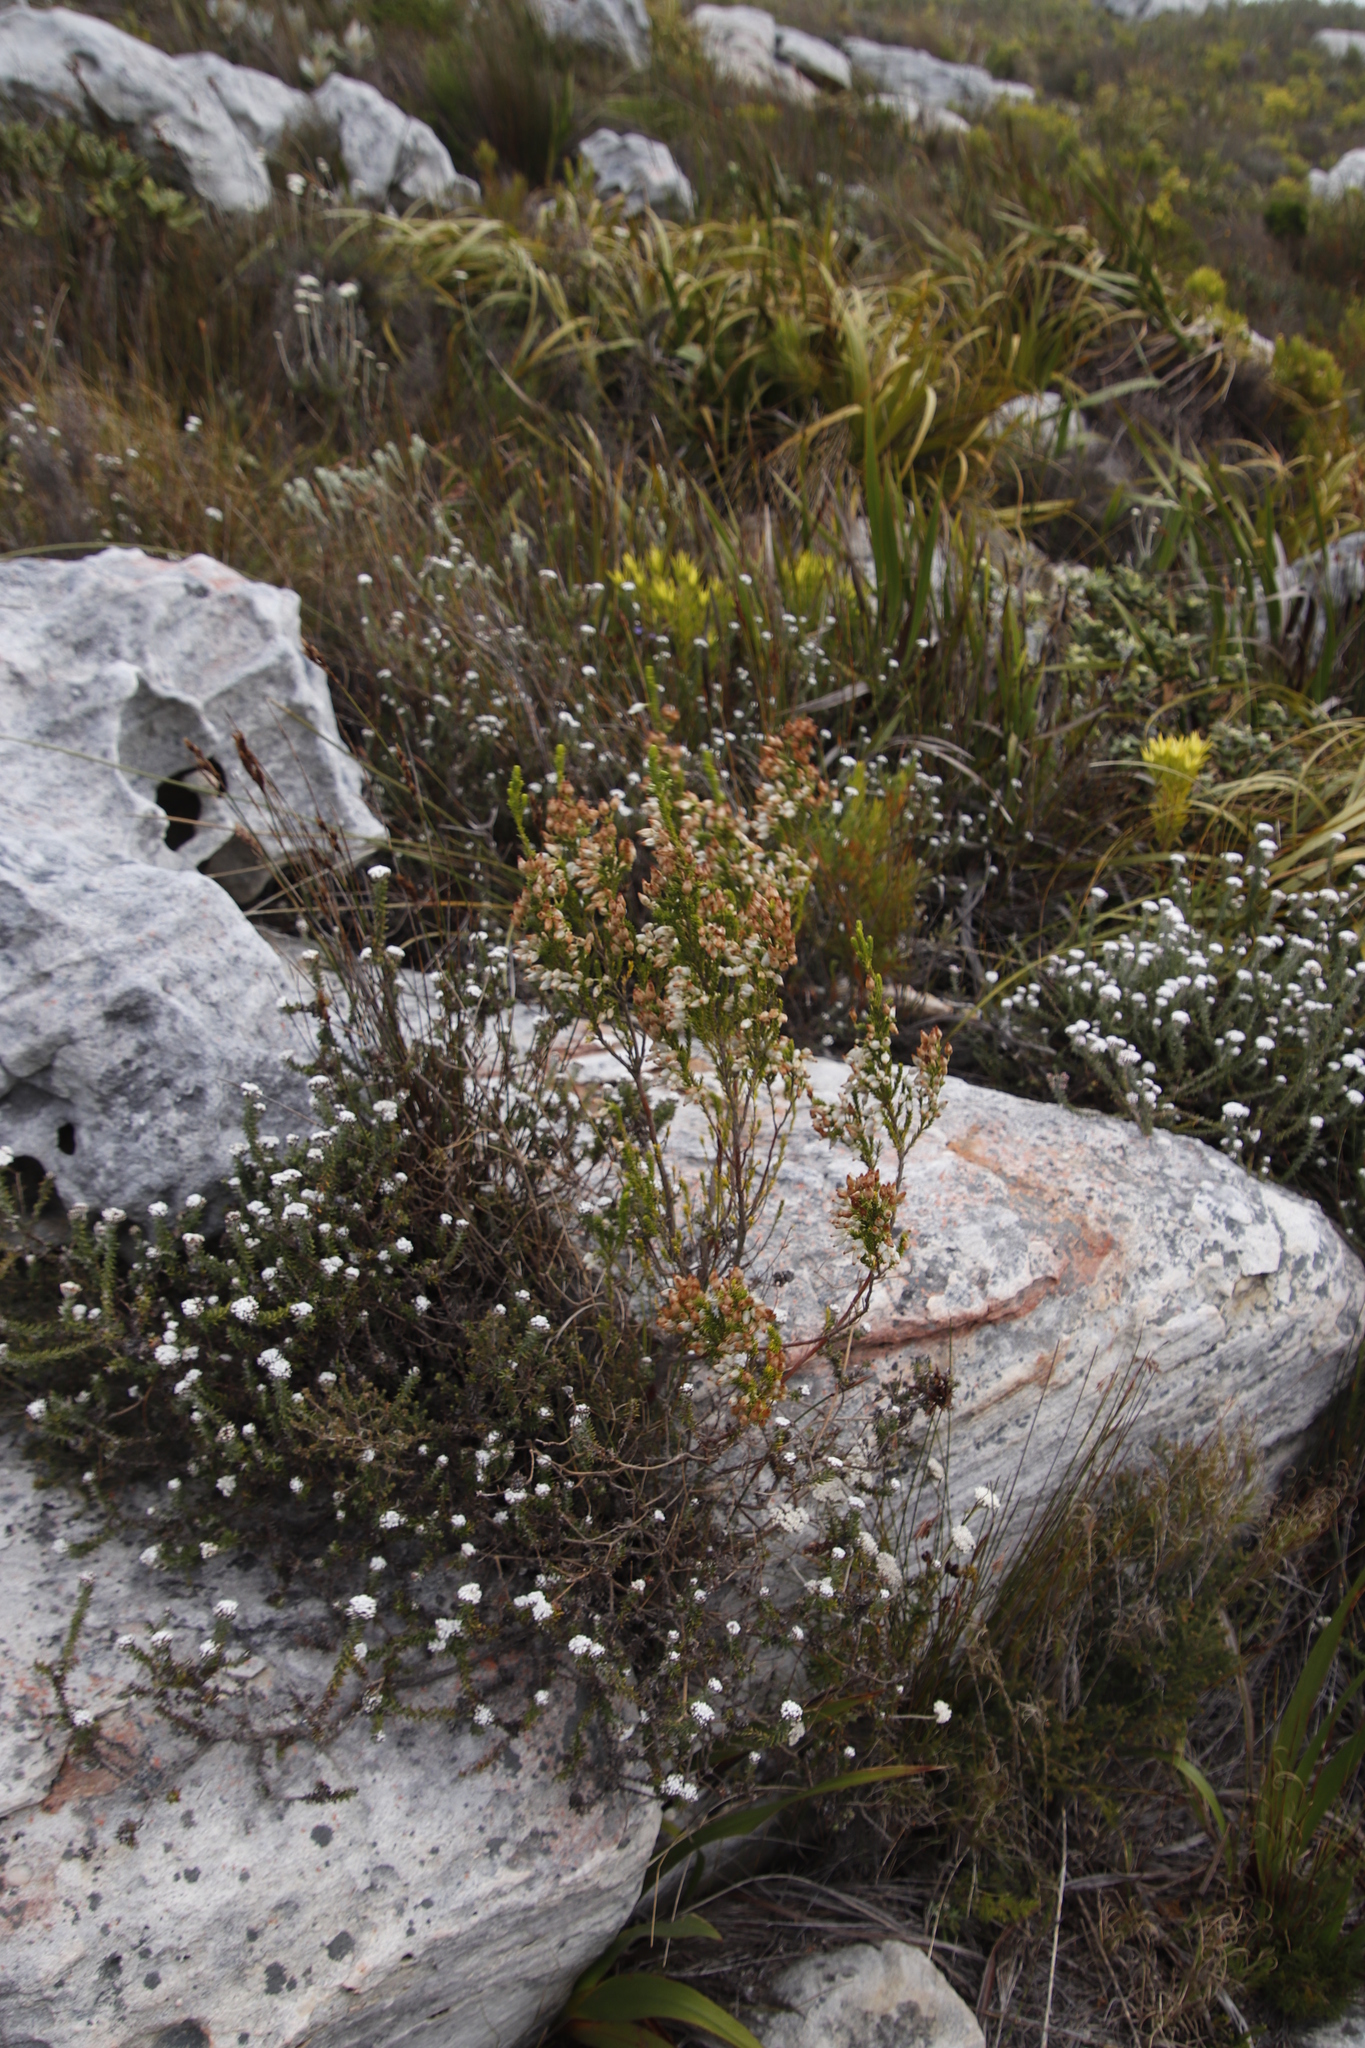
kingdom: Plantae
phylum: Tracheophyta
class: Magnoliopsida
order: Ericales
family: Ericaceae
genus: Erica
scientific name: Erica physodes
